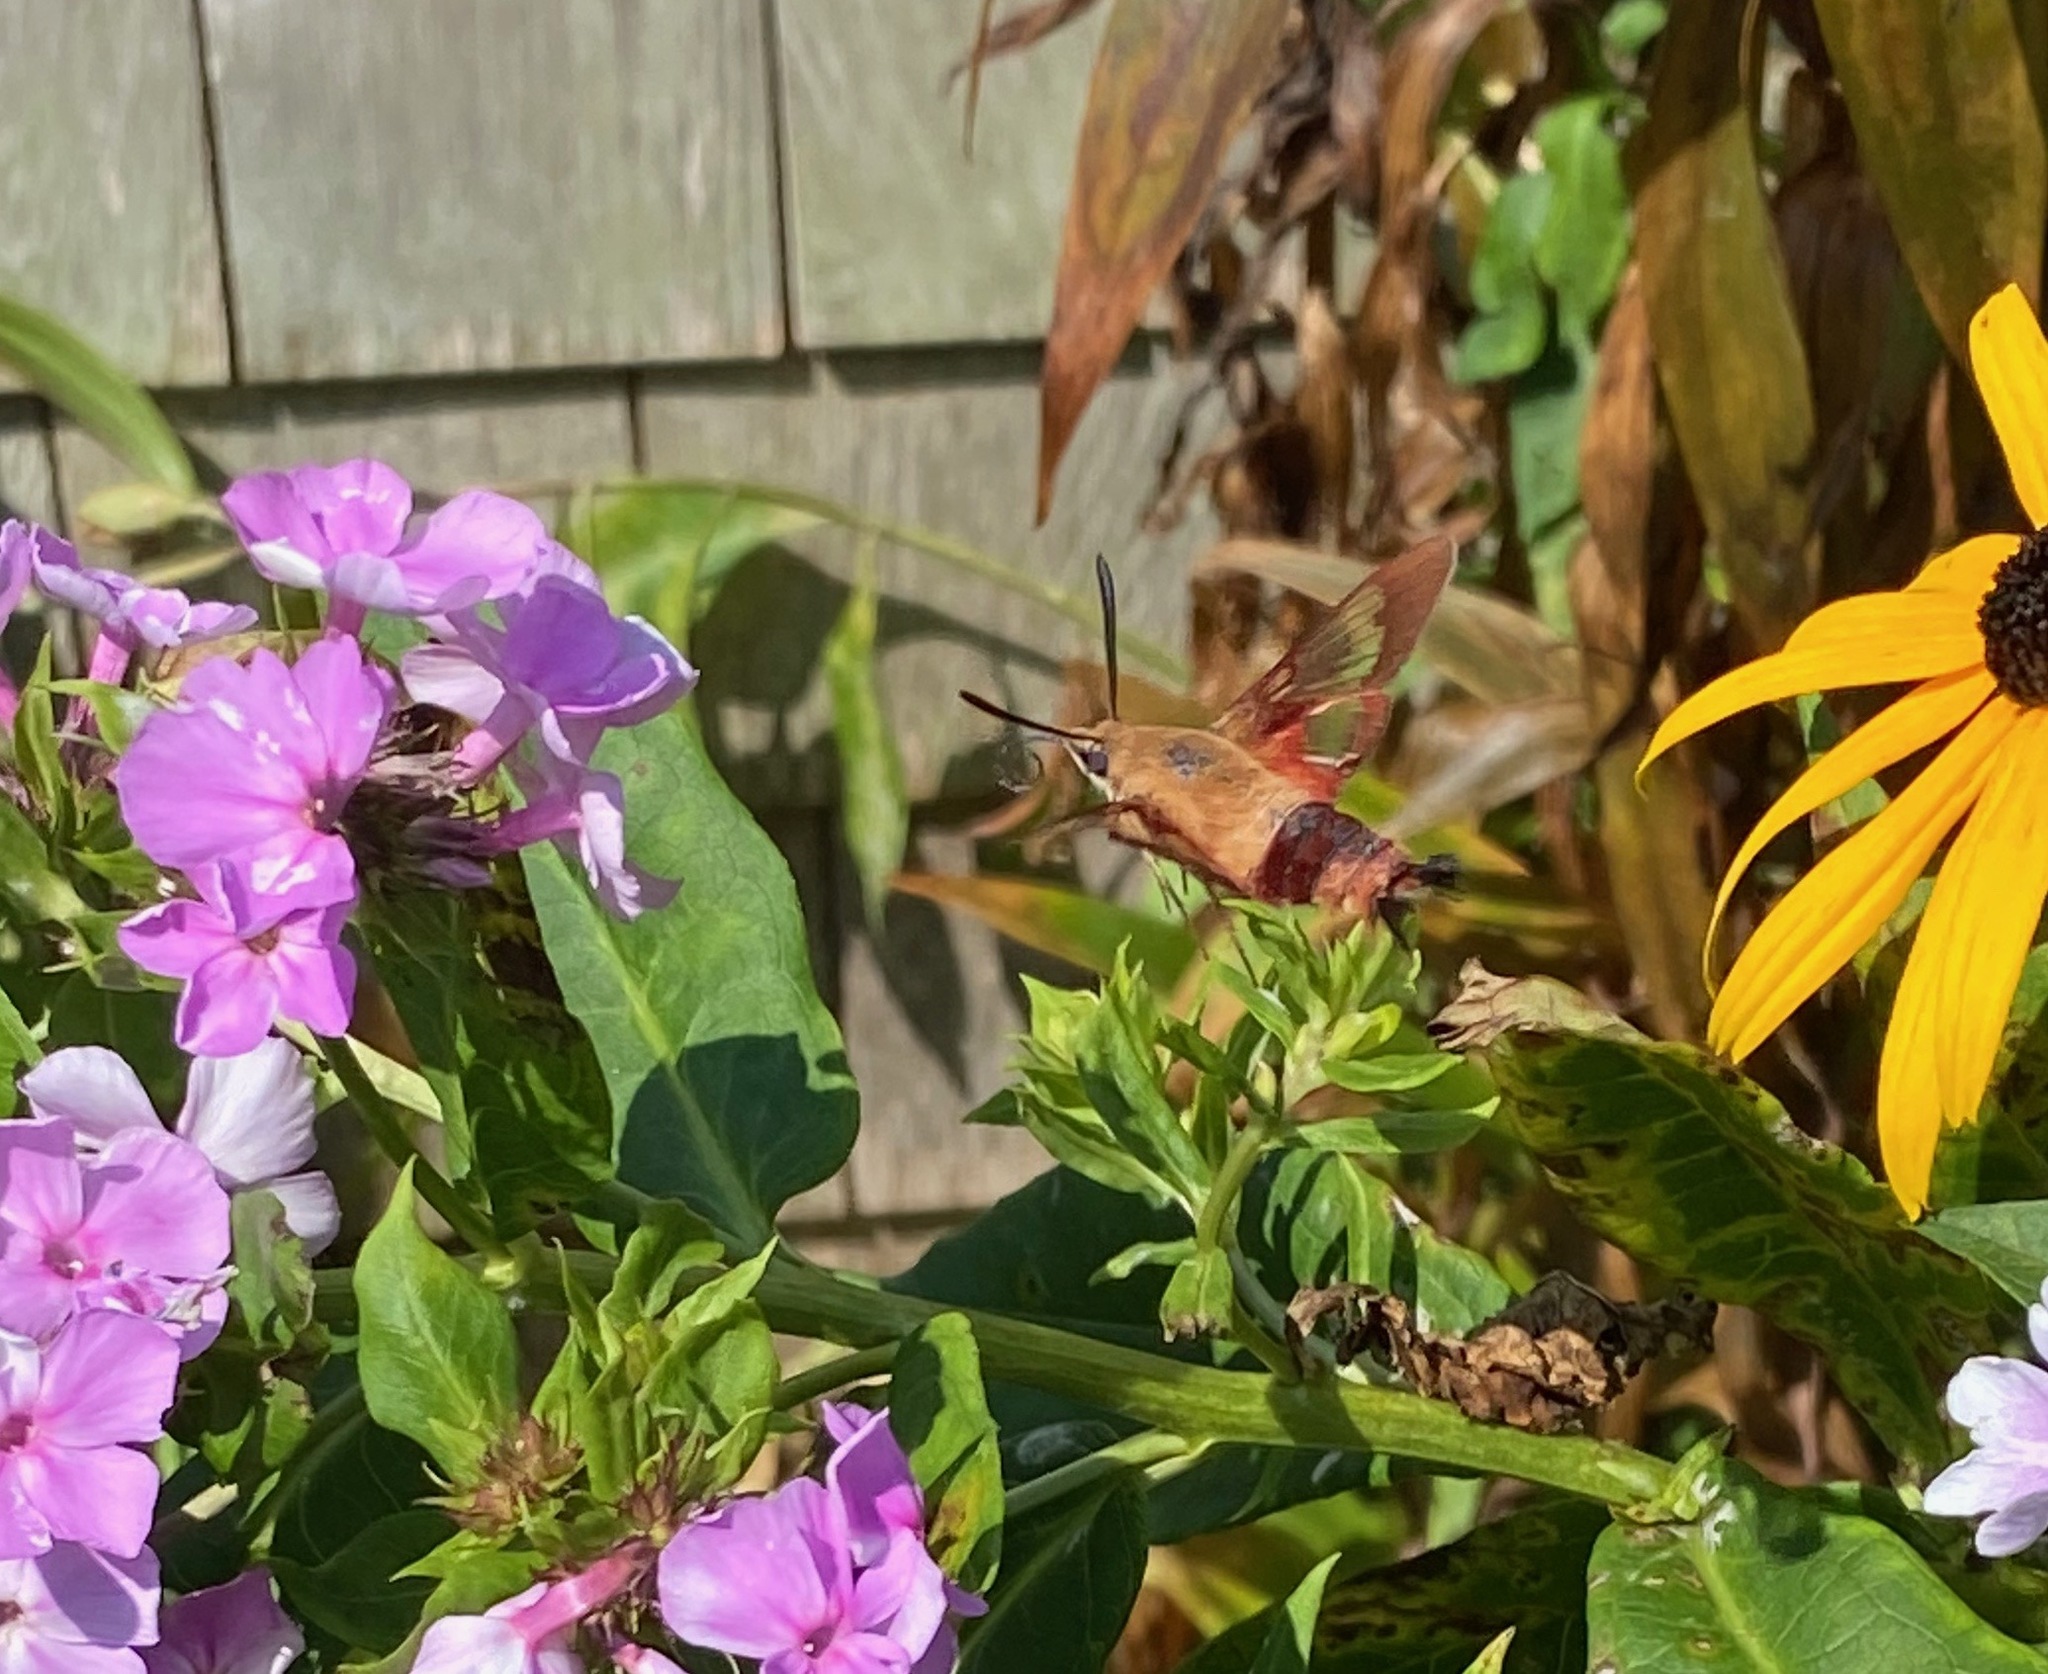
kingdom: Animalia
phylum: Arthropoda
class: Insecta
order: Lepidoptera
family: Sphingidae
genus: Hemaris
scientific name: Hemaris thysbe
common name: Common clear-wing
